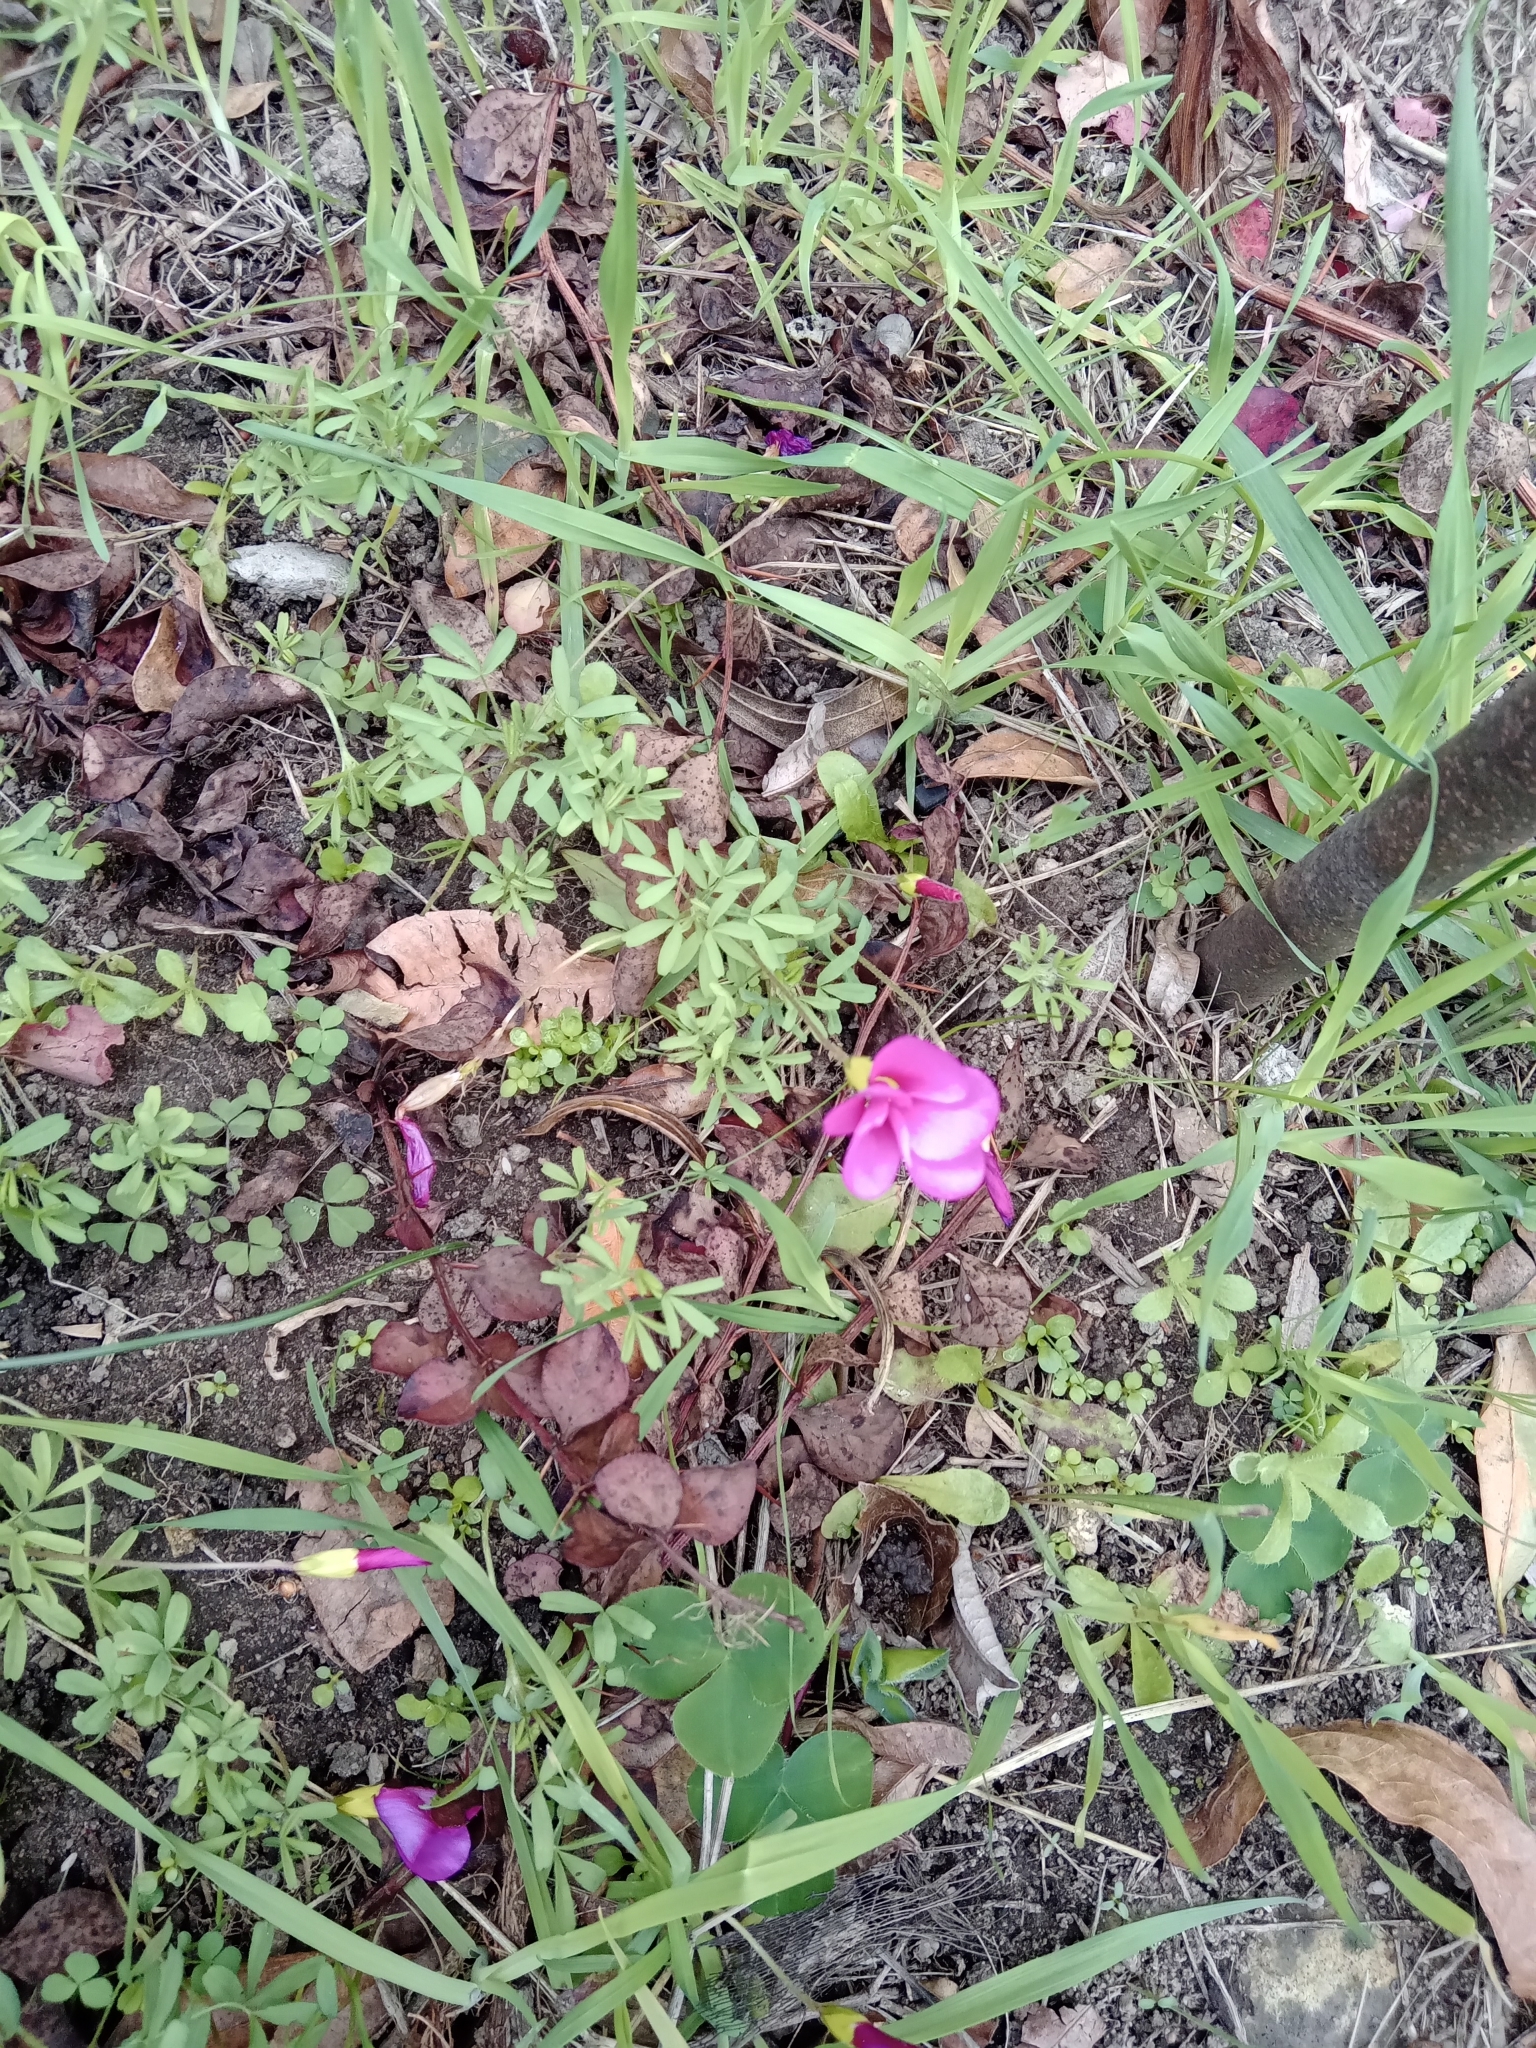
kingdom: Plantae
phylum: Tracheophyta
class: Magnoliopsida
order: Oxalidales
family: Oxalidaceae
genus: Oxalis
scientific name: Oxalis glabra
